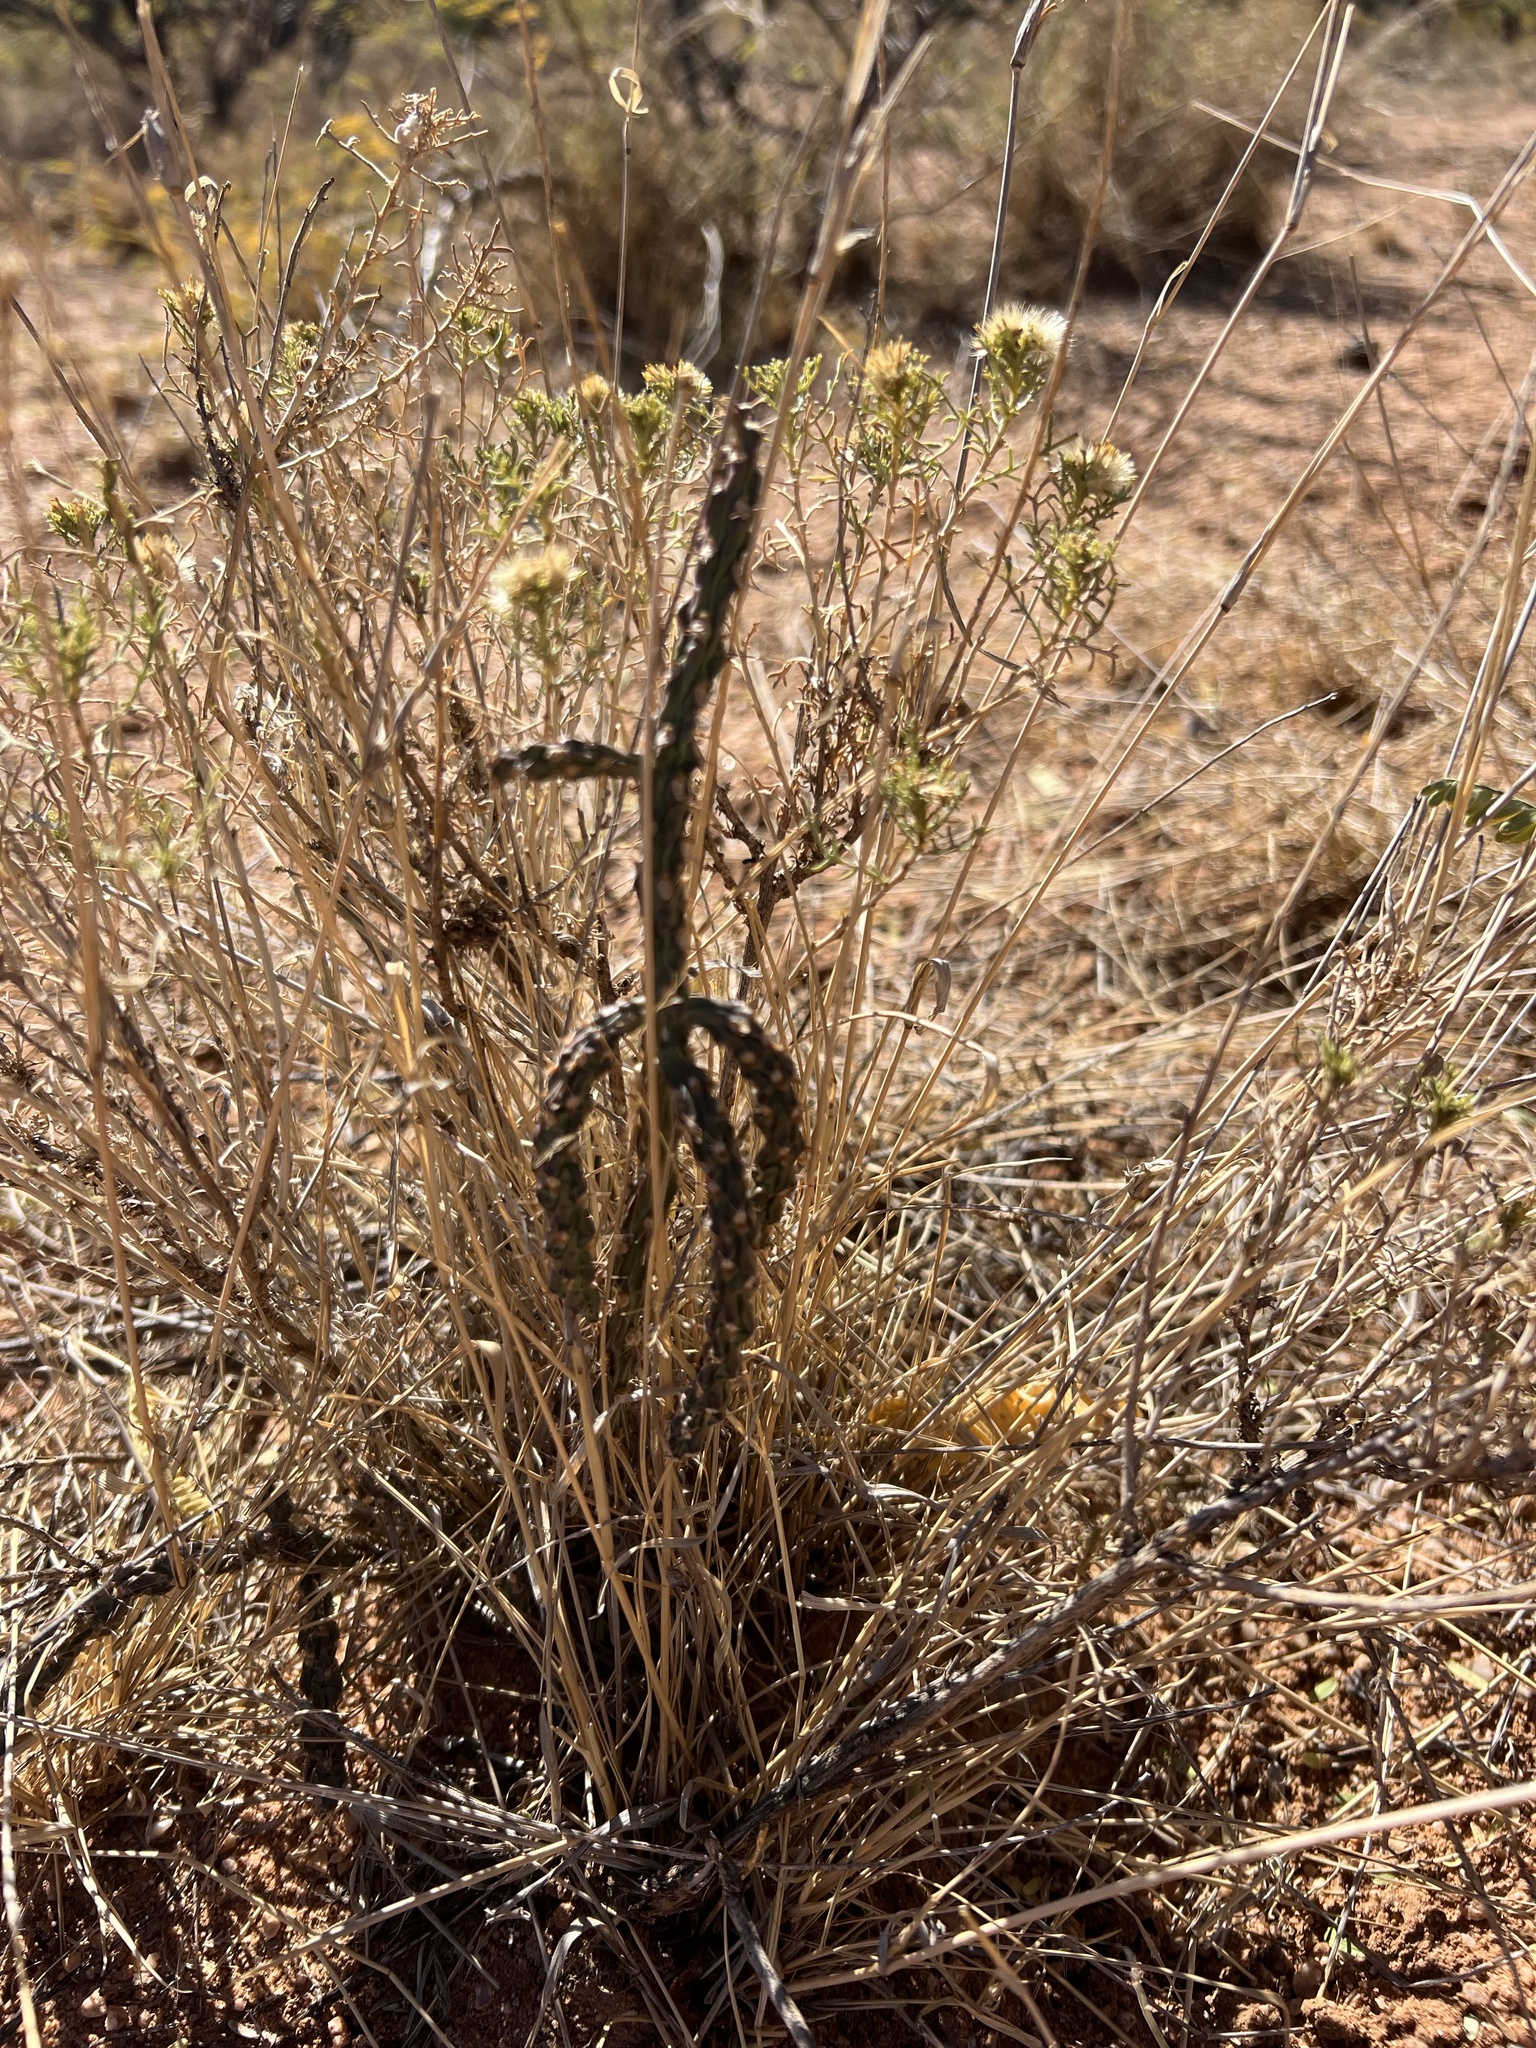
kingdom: Plantae
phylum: Tracheophyta
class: Magnoliopsida
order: Caryophyllales
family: Cactaceae
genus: Cylindropuntia
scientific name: Cylindropuntia leptocaulis
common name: Christmas cactus
